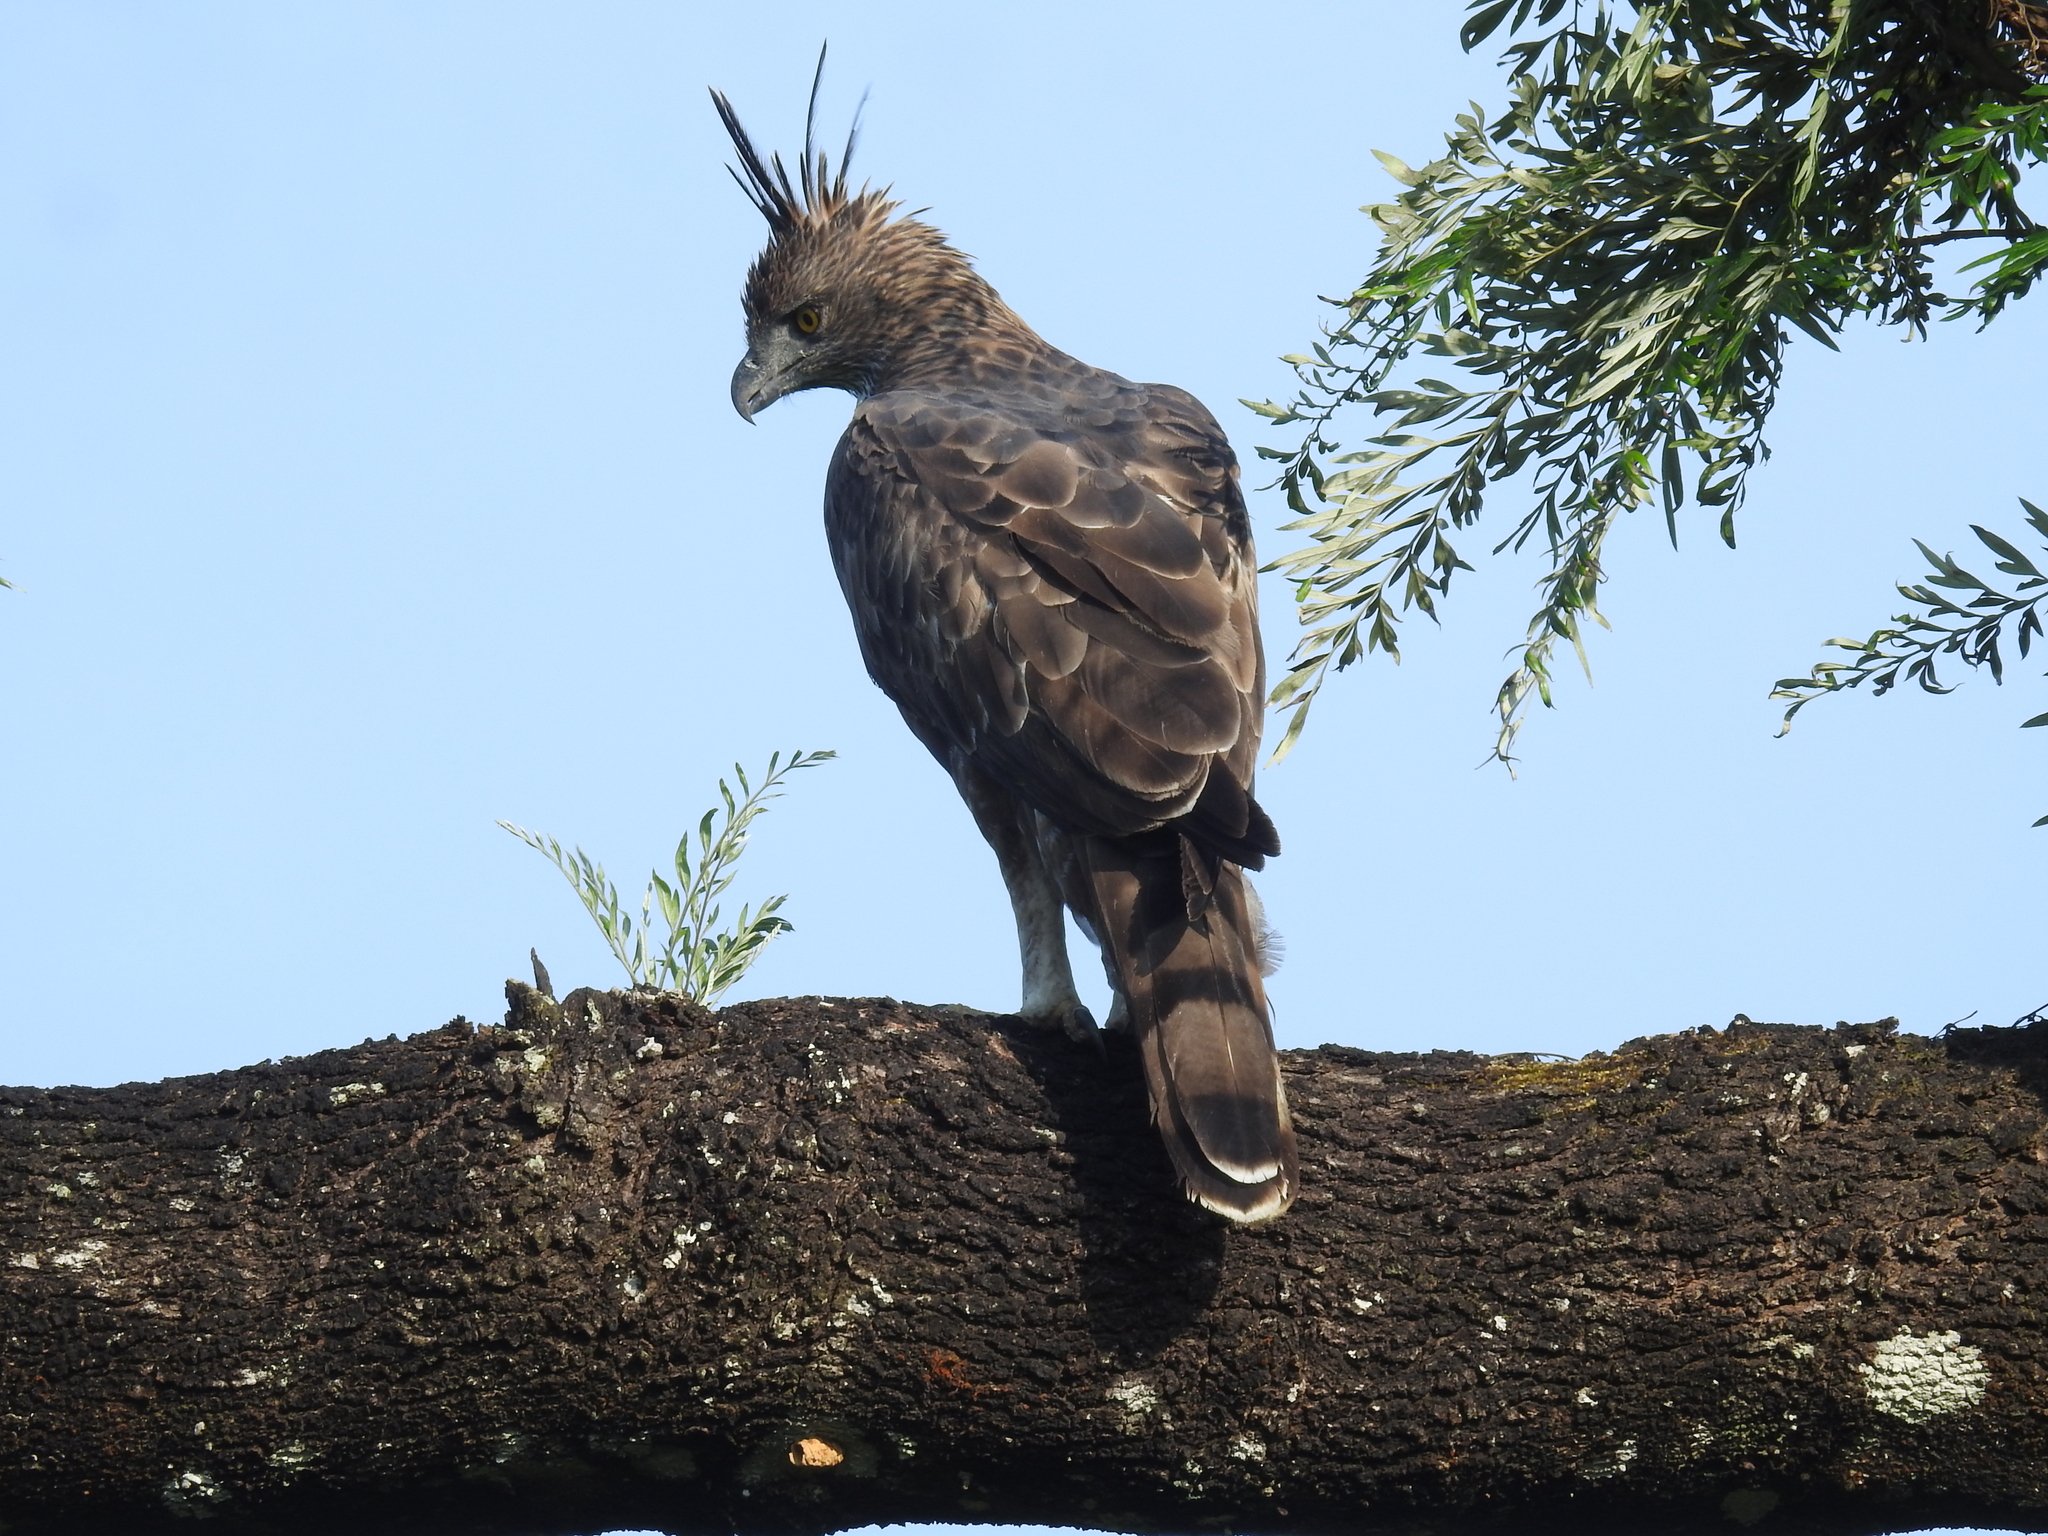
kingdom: Animalia
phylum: Chordata
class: Aves
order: Accipitriformes
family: Accipitridae
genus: Nisaetus
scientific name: Nisaetus cirrhatus
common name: Changeable hawk-eagle
